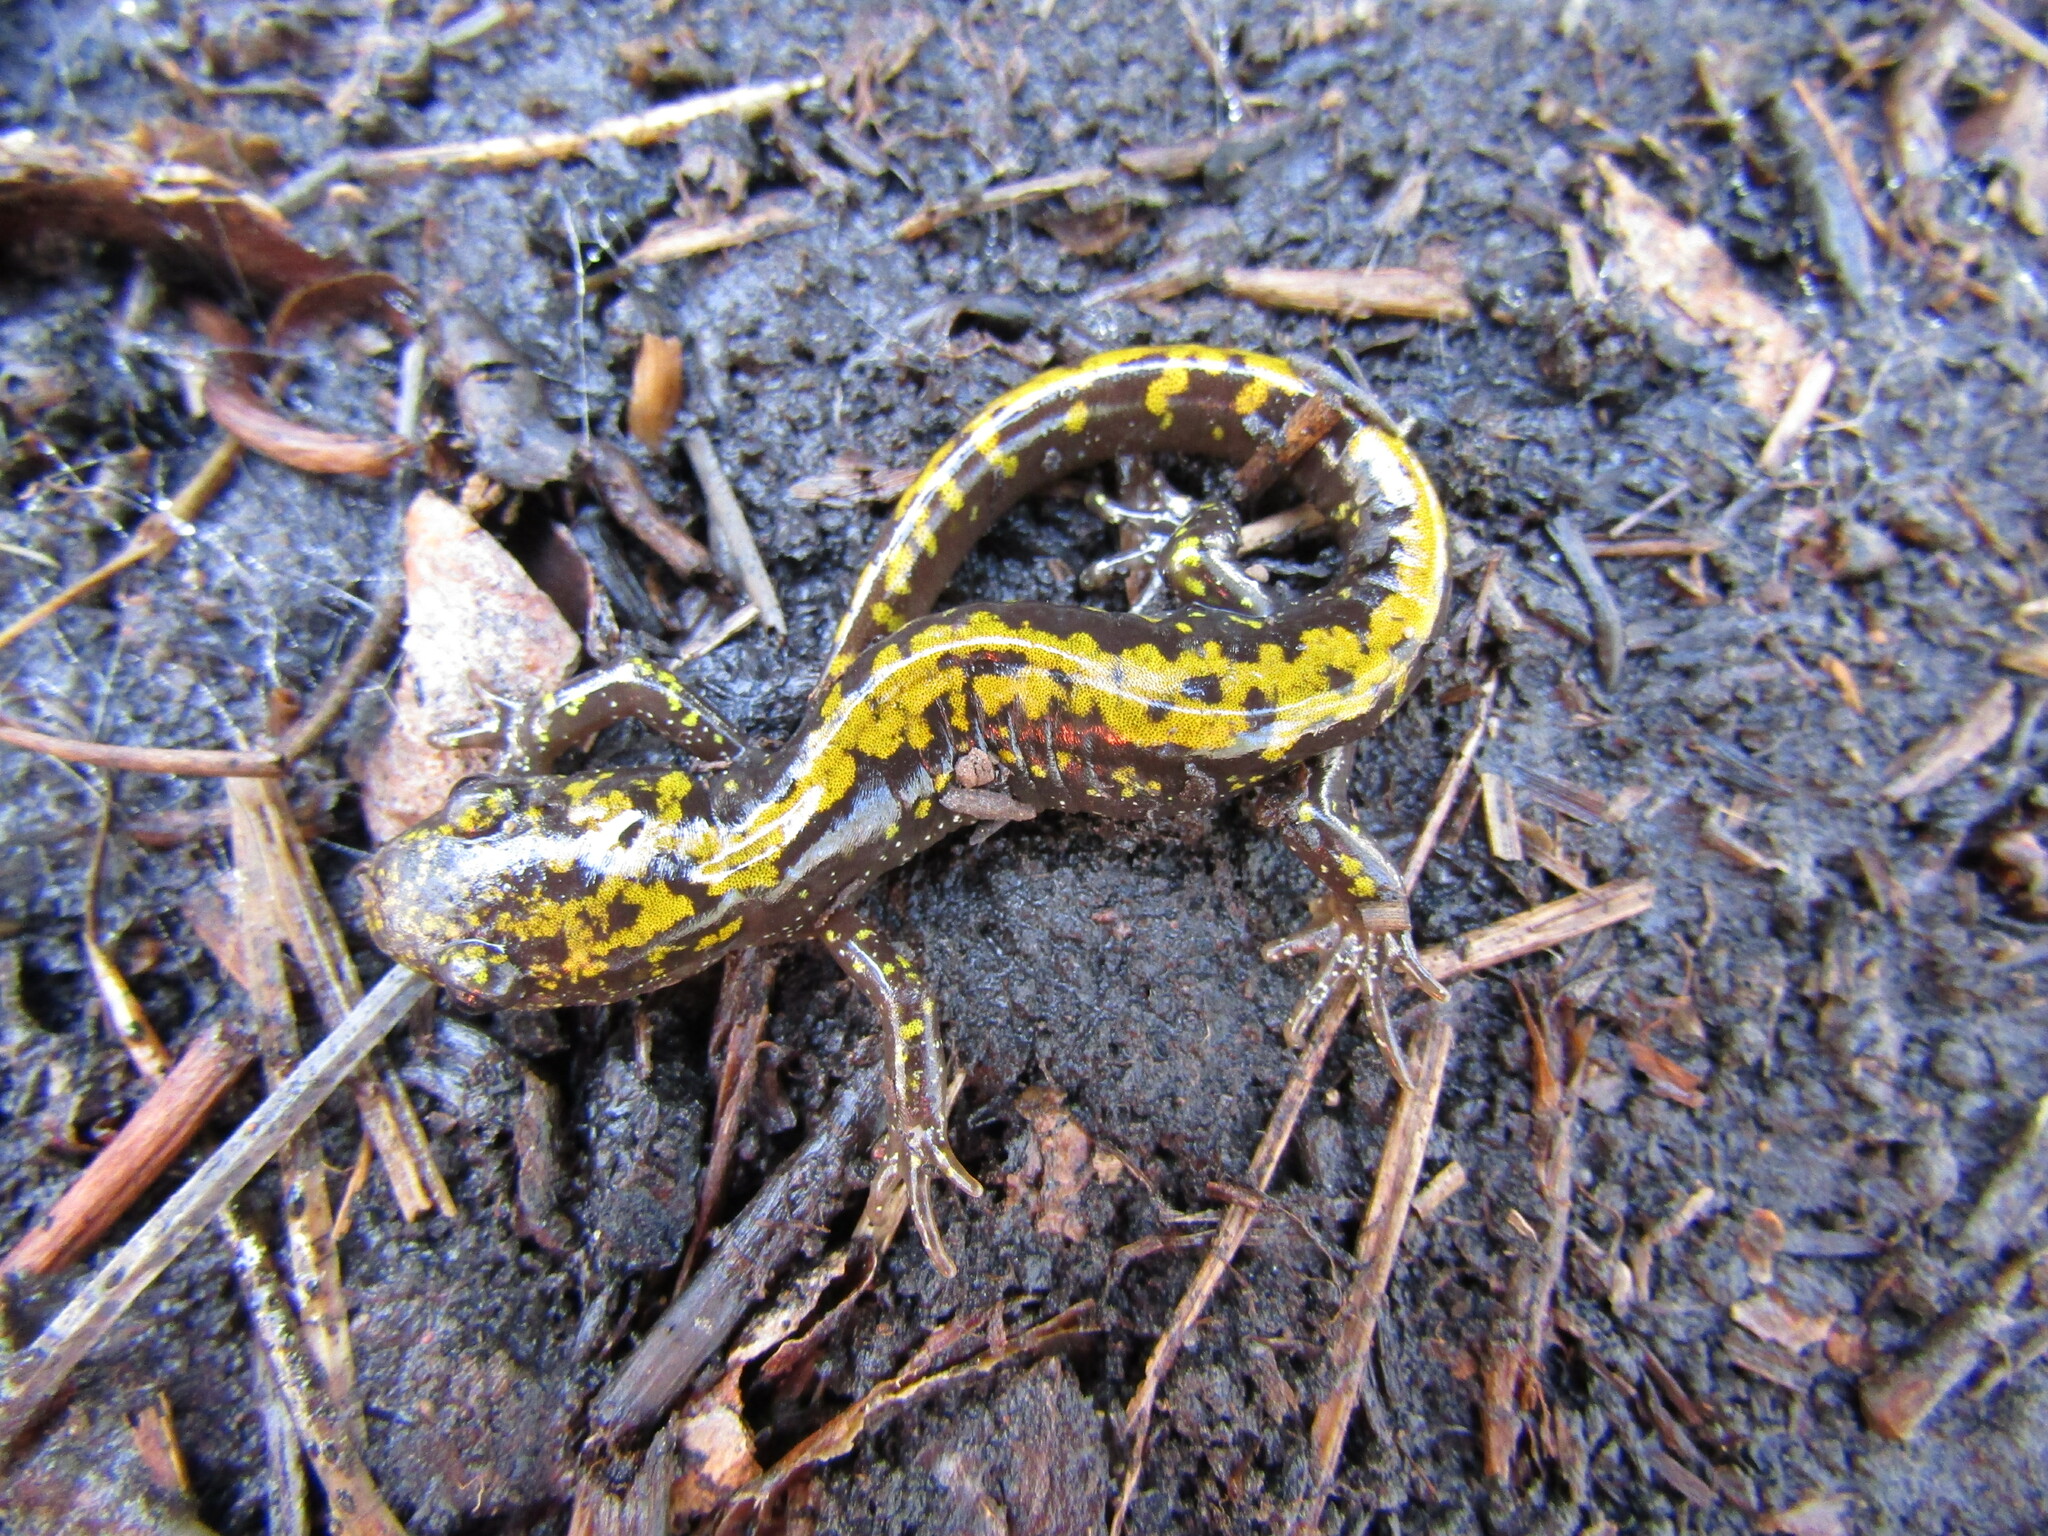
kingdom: Animalia
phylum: Chordata
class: Amphibia
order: Caudata
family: Ambystomatidae
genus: Ambystoma
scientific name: Ambystoma macrodactylum
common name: Long-toed salamander
